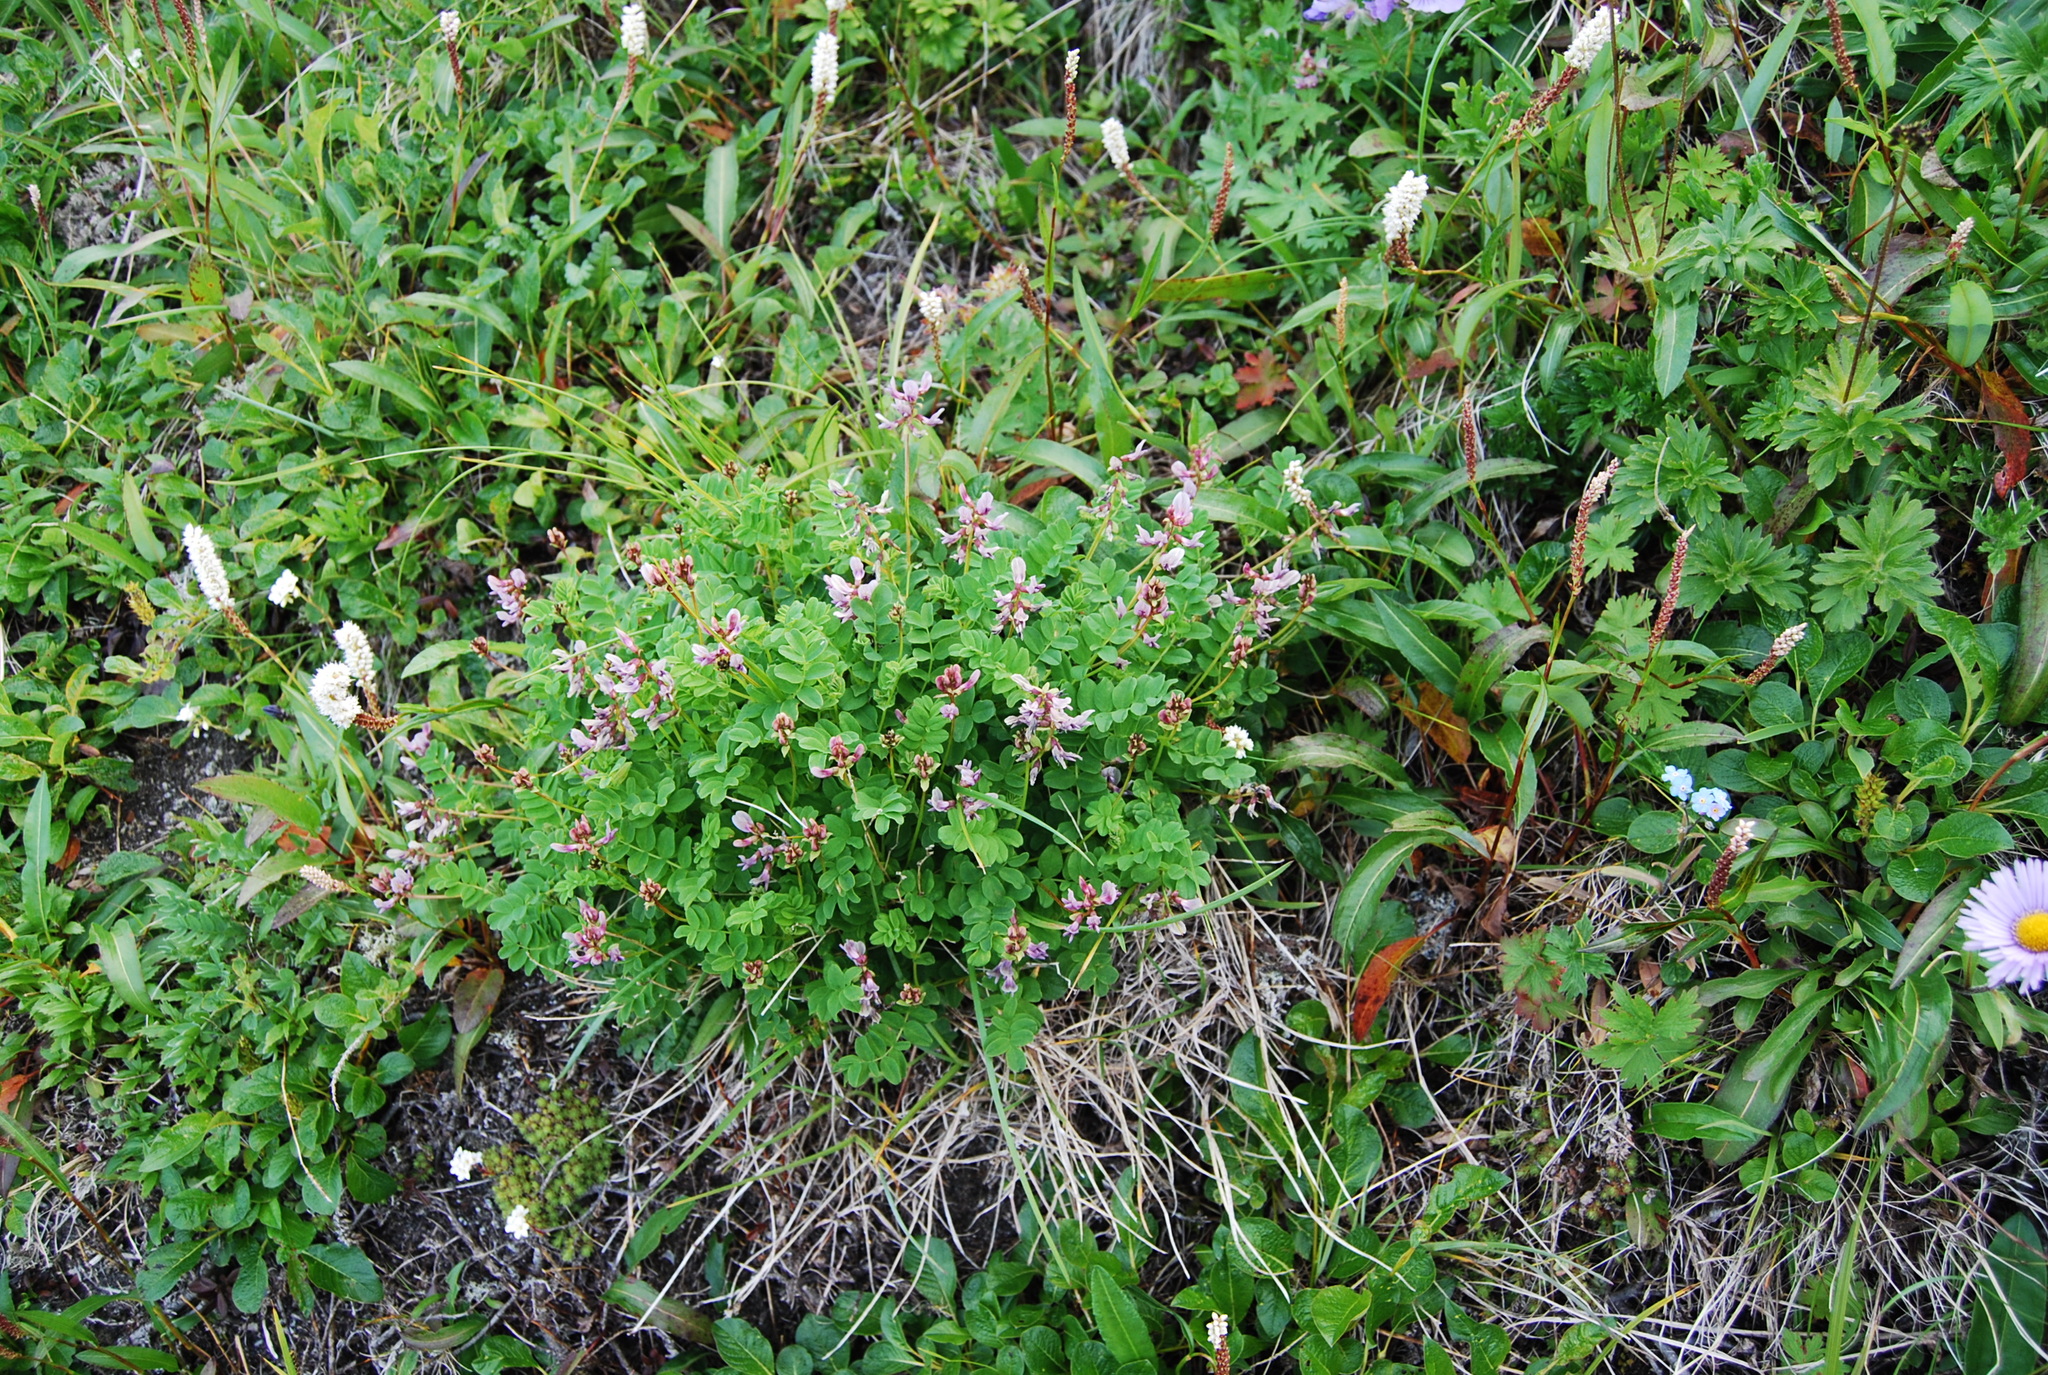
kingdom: Plantae
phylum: Tracheophyta
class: Magnoliopsida
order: Fabales
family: Fabaceae
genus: Astragalus
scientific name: Astragalus ochotensis
